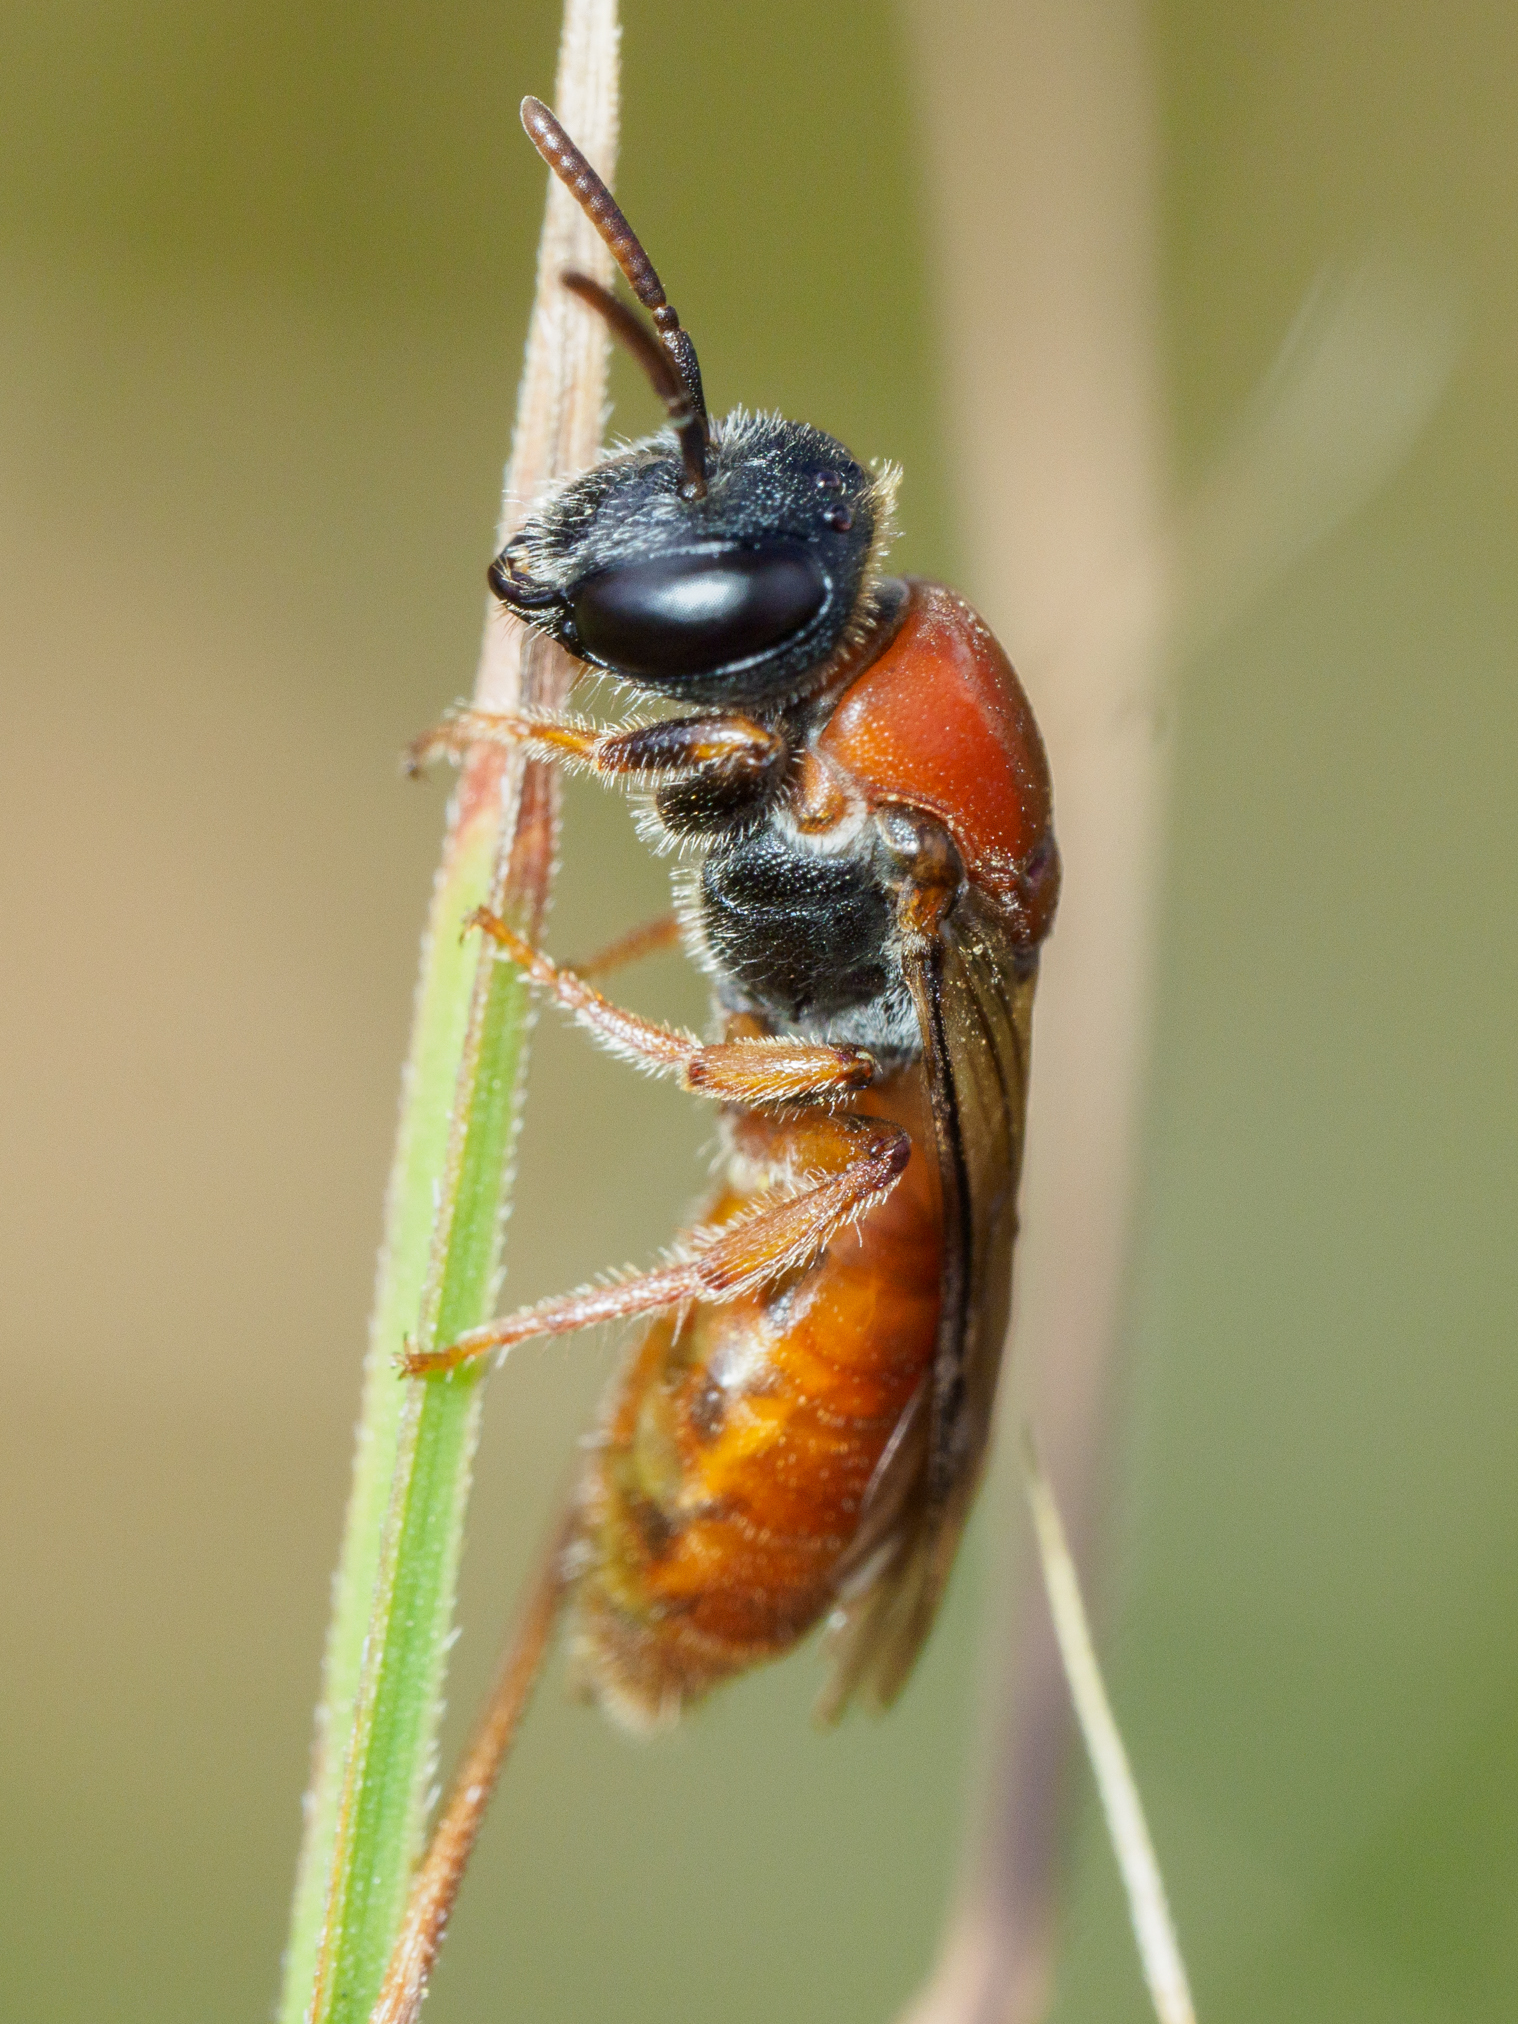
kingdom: Animalia
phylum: Arthropoda
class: Insecta
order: Hymenoptera
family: Colletidae
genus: Euryglossa
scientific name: Euryglossa edwardsii
